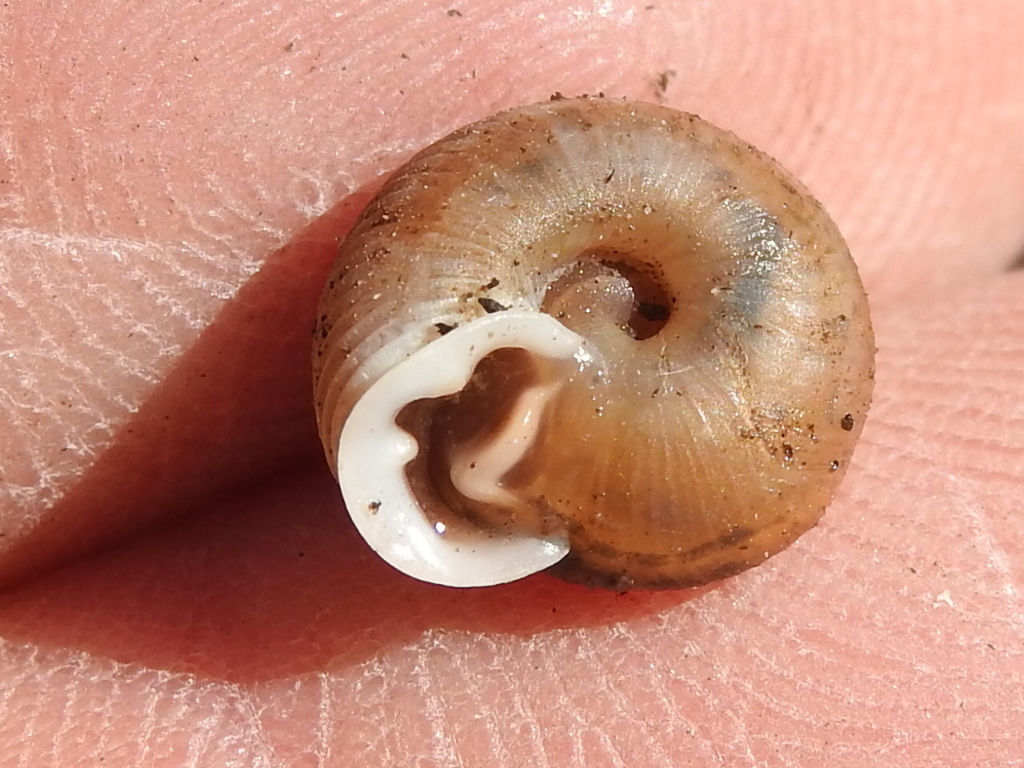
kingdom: Animalia
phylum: Mollusca
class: Gastropoda
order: Stylommatophora
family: Polygyridae
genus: Linisa
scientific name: Linisa texasiana
